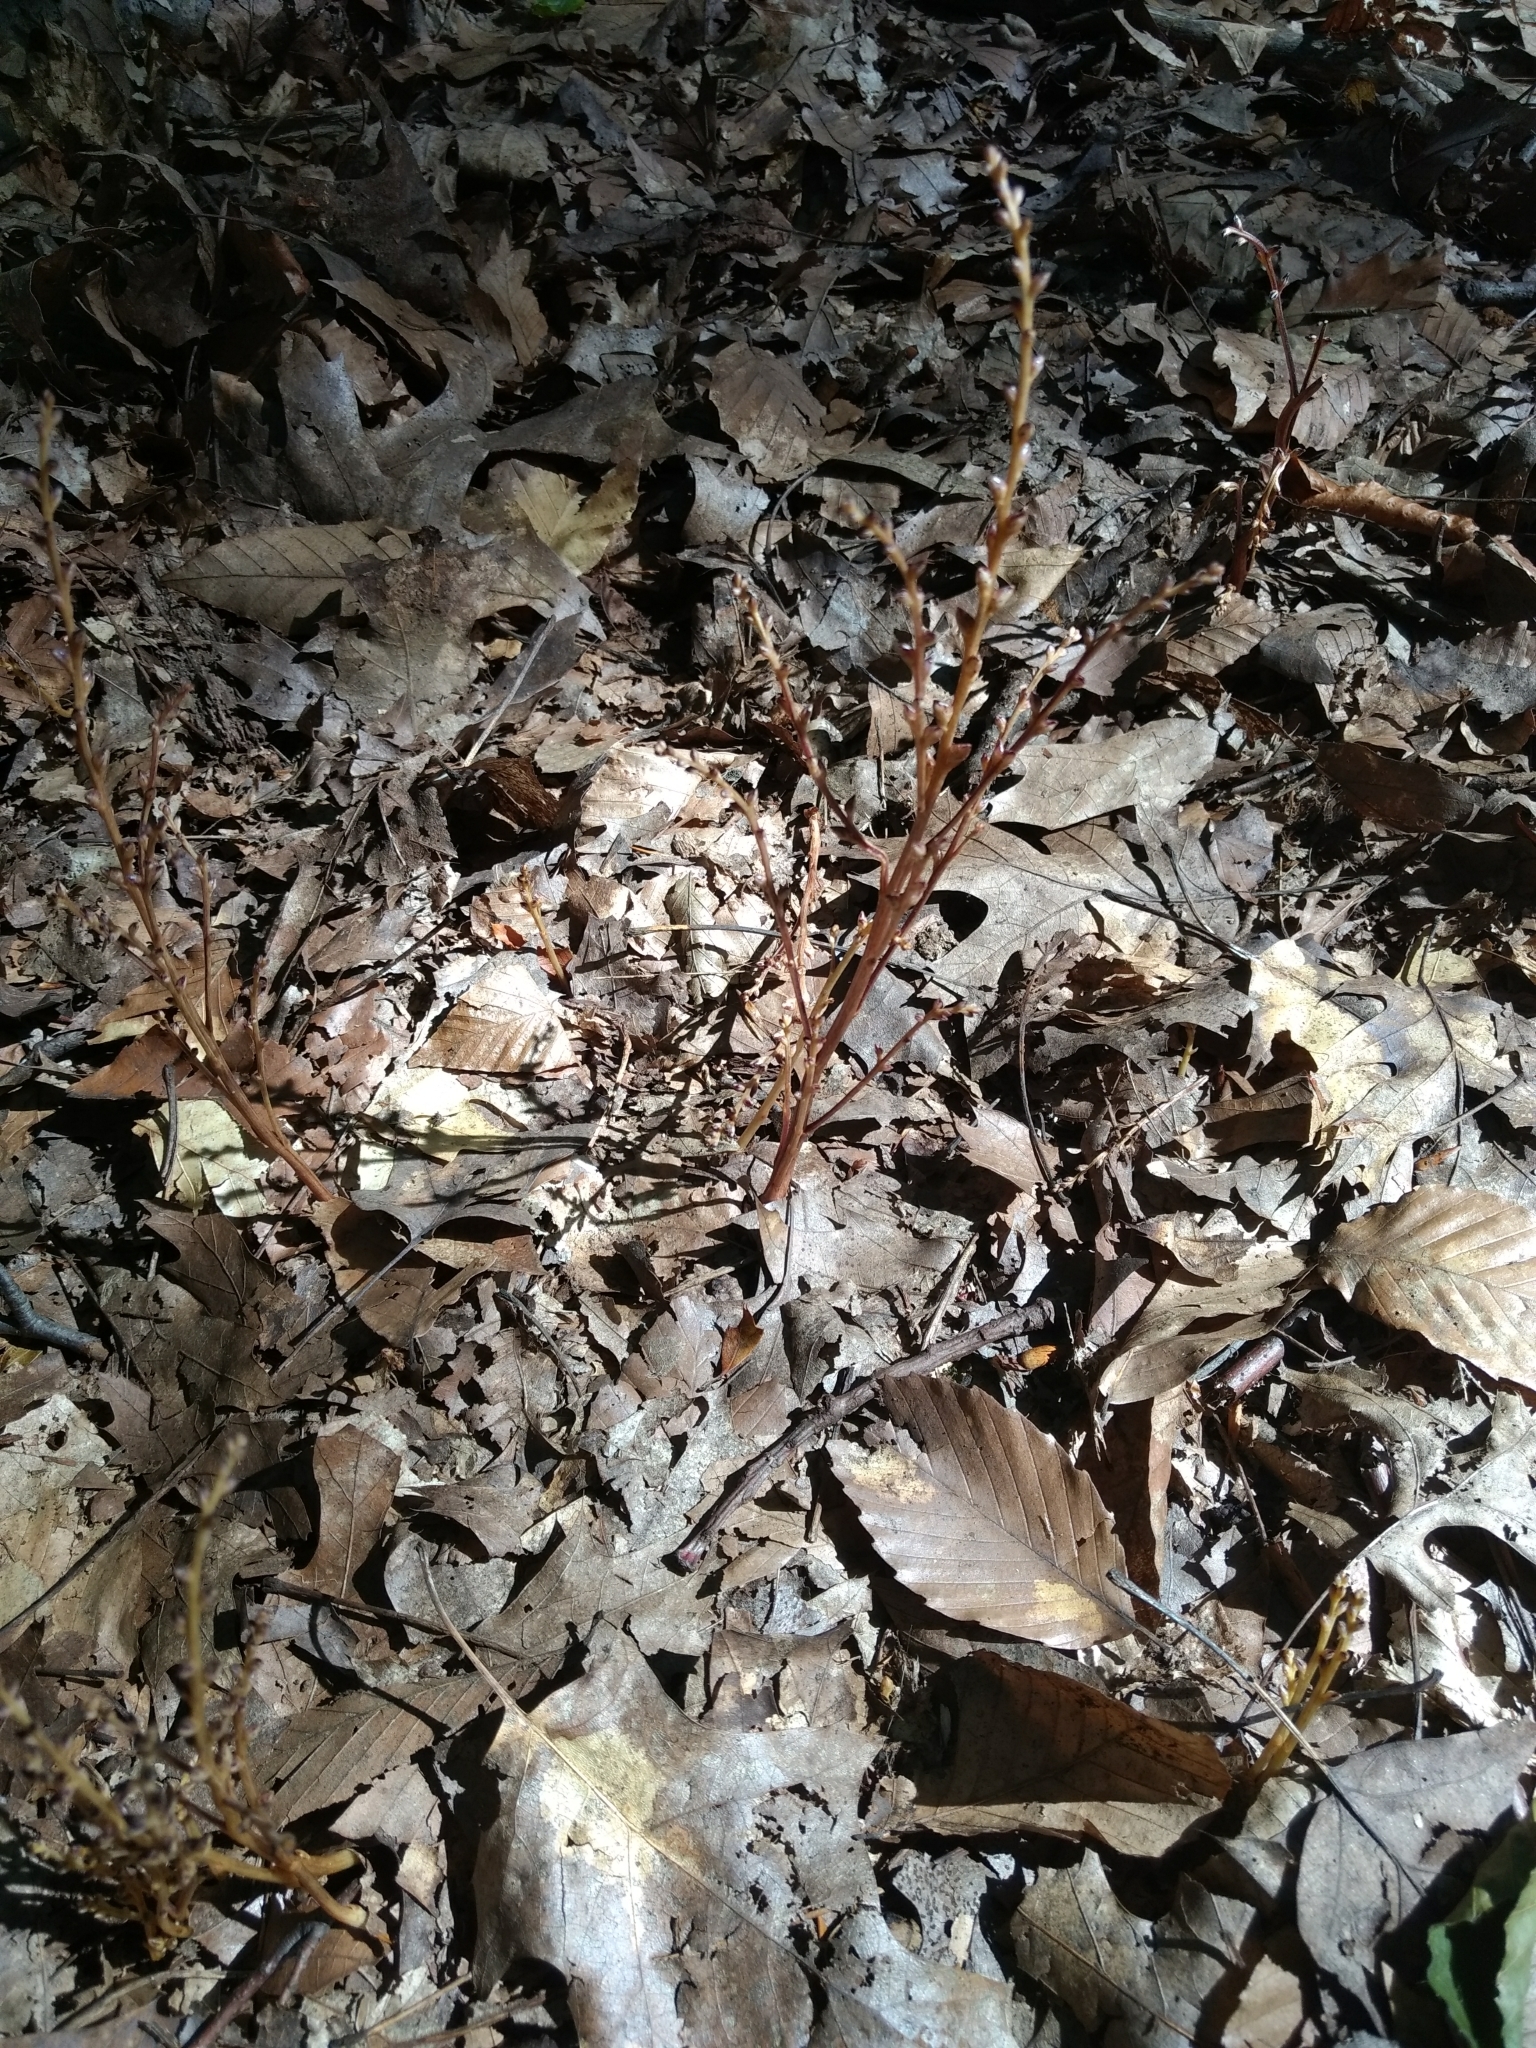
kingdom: Plantae
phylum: Tracheophyta
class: Magnoliopsida
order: Lamiales
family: Orobanchaceae
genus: Epifagus
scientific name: Epifagus virginiana
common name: Beechdrops
